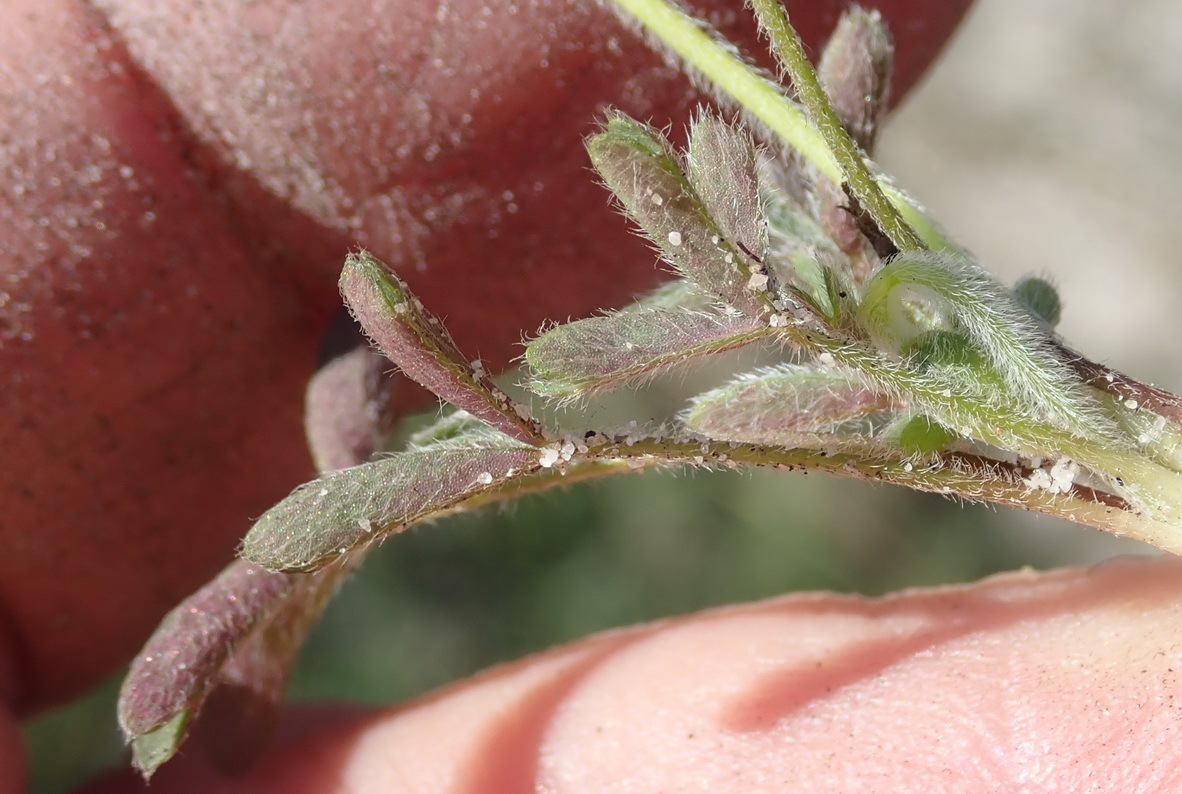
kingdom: Plantae
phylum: Tracheophyta
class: Magnoliopsida
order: Oxalidales
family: Oxalidaceae
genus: Oxalis
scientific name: Oxalis obtusa
